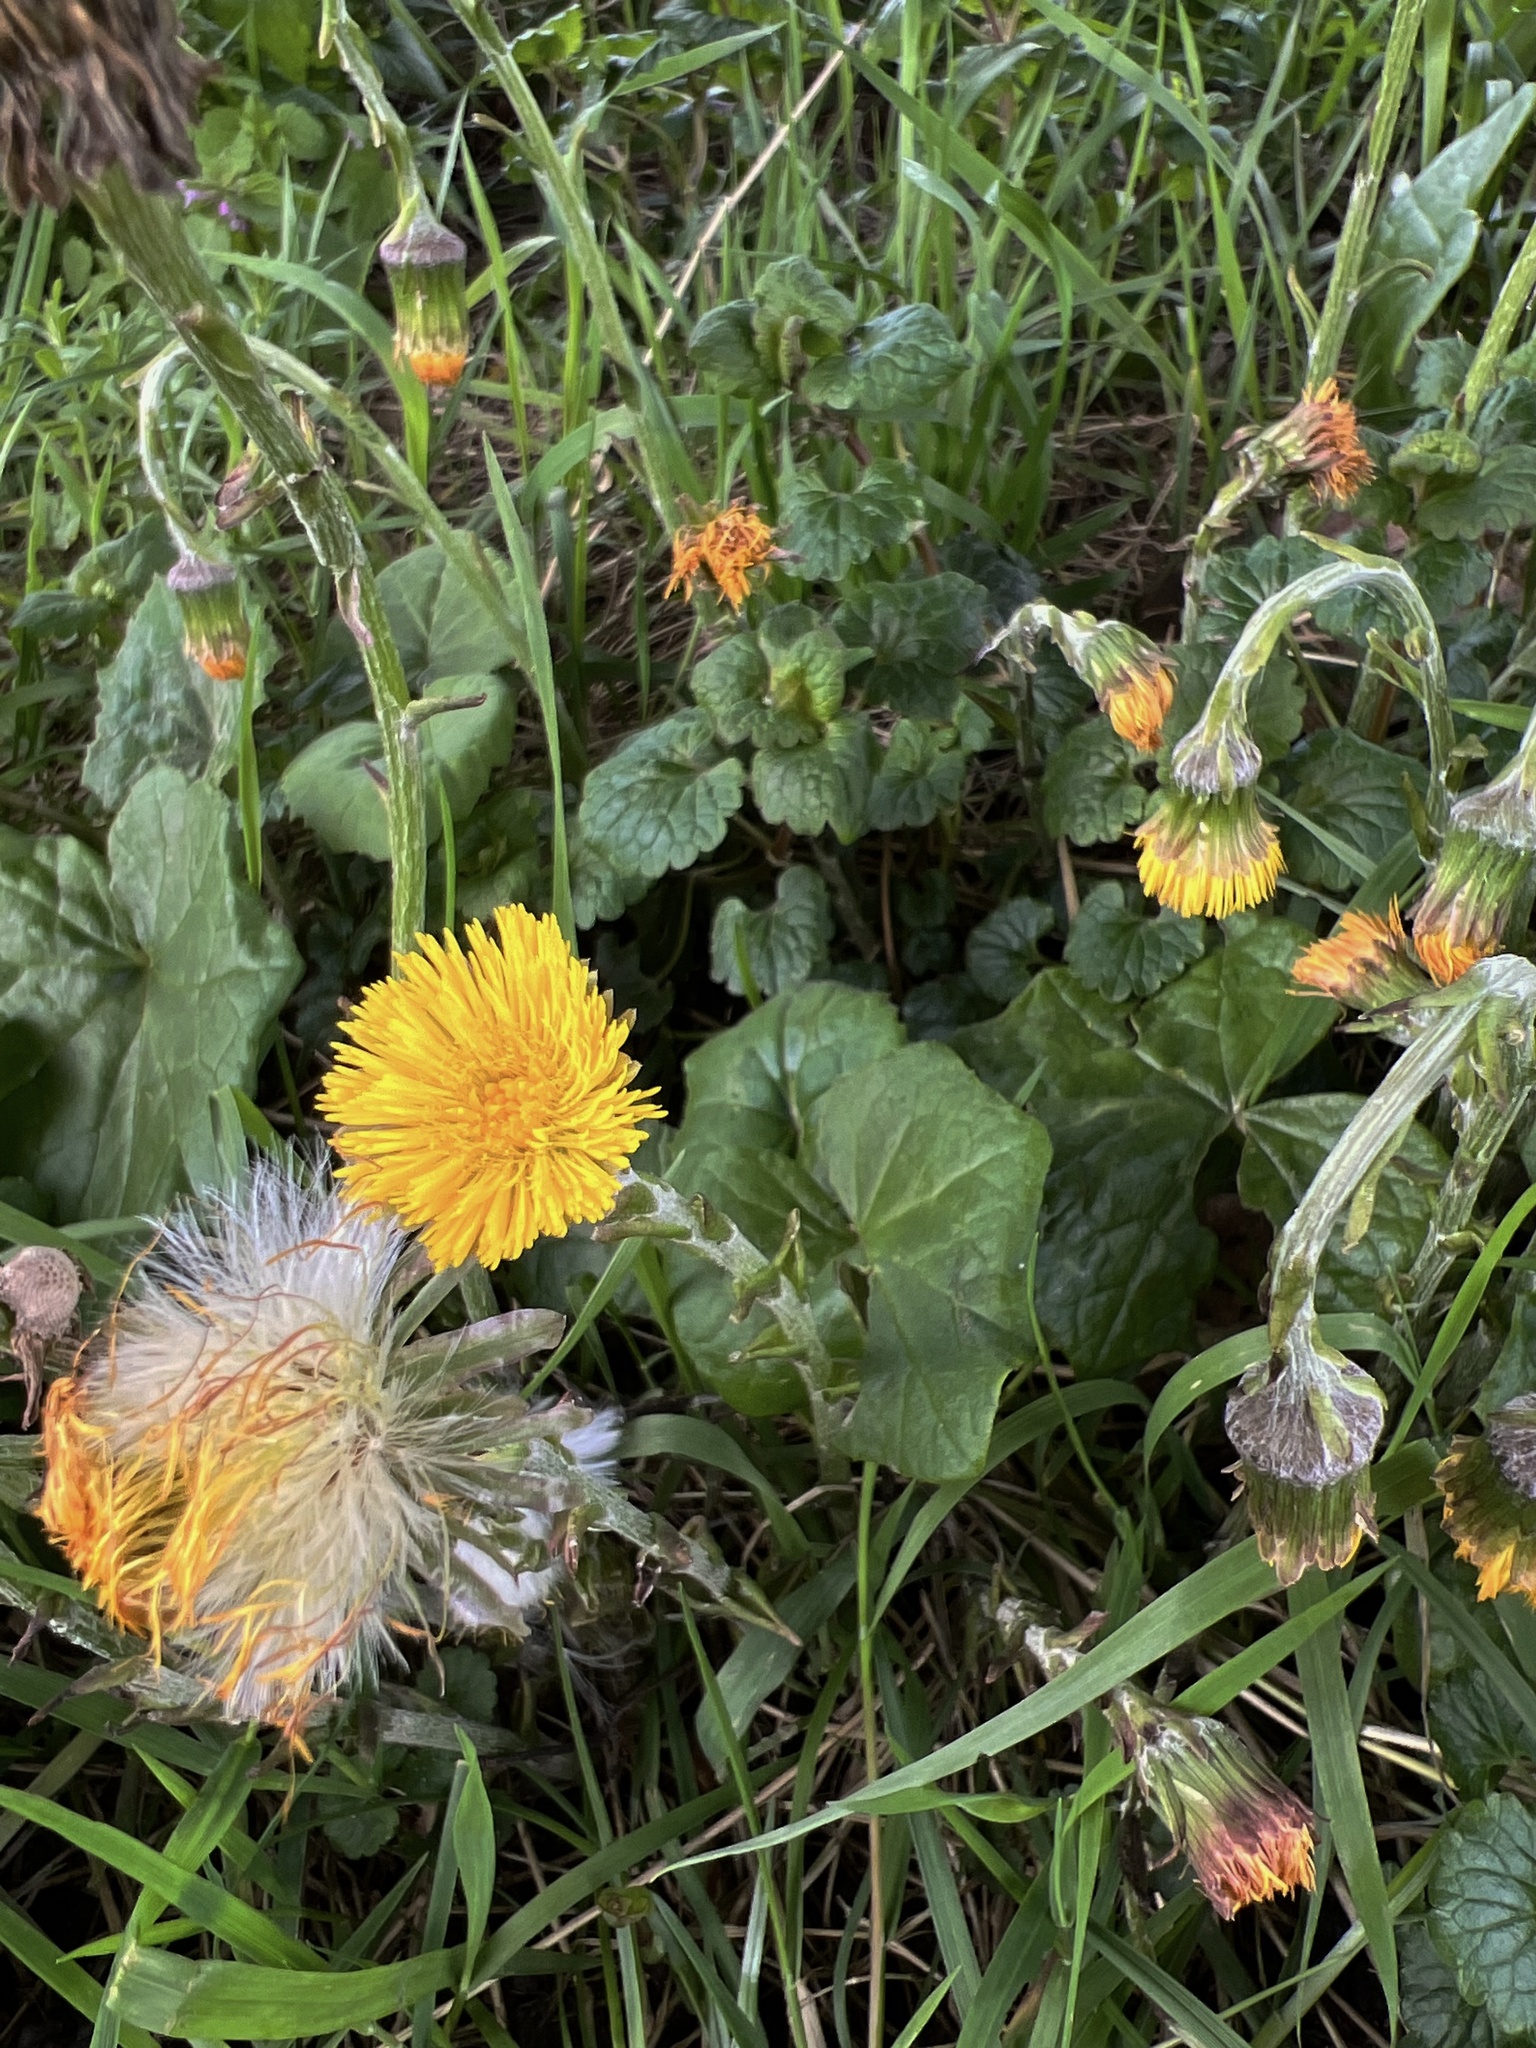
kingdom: Plantae
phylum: Tracheophyta
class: Magnoliopsida
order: Asterales
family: Asteraceae
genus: Tussilago
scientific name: Tussilago farfara
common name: Coltsfoot
